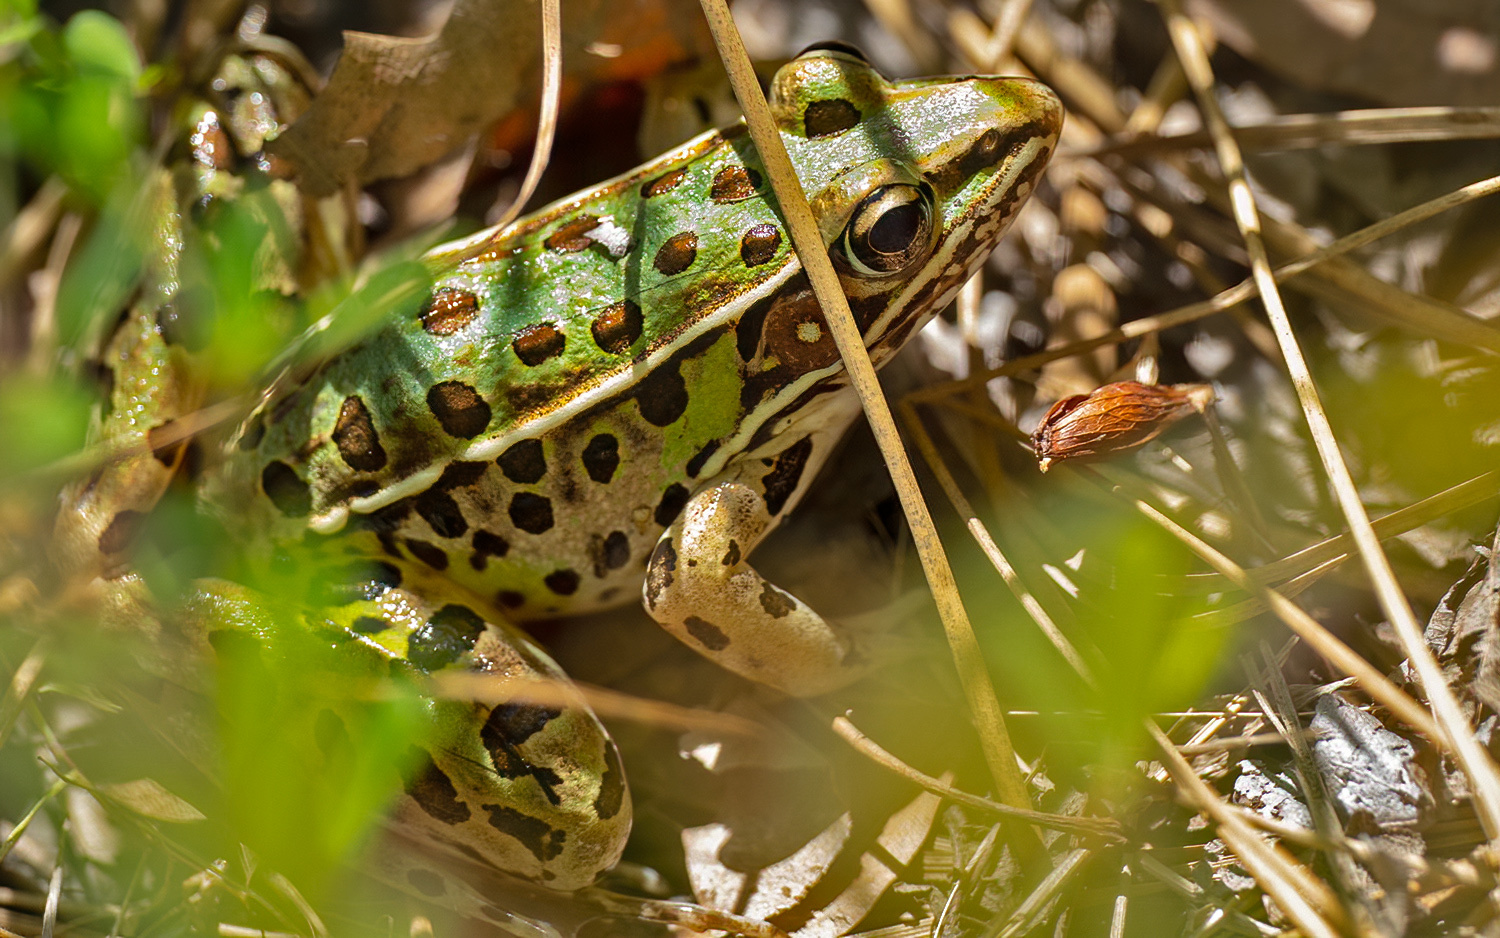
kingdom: Animalia
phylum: Chordata
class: Amphibia
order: Anura
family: Ranidae
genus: Lithobates
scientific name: Lithobates sphenocephalus
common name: Southern leopard frog
